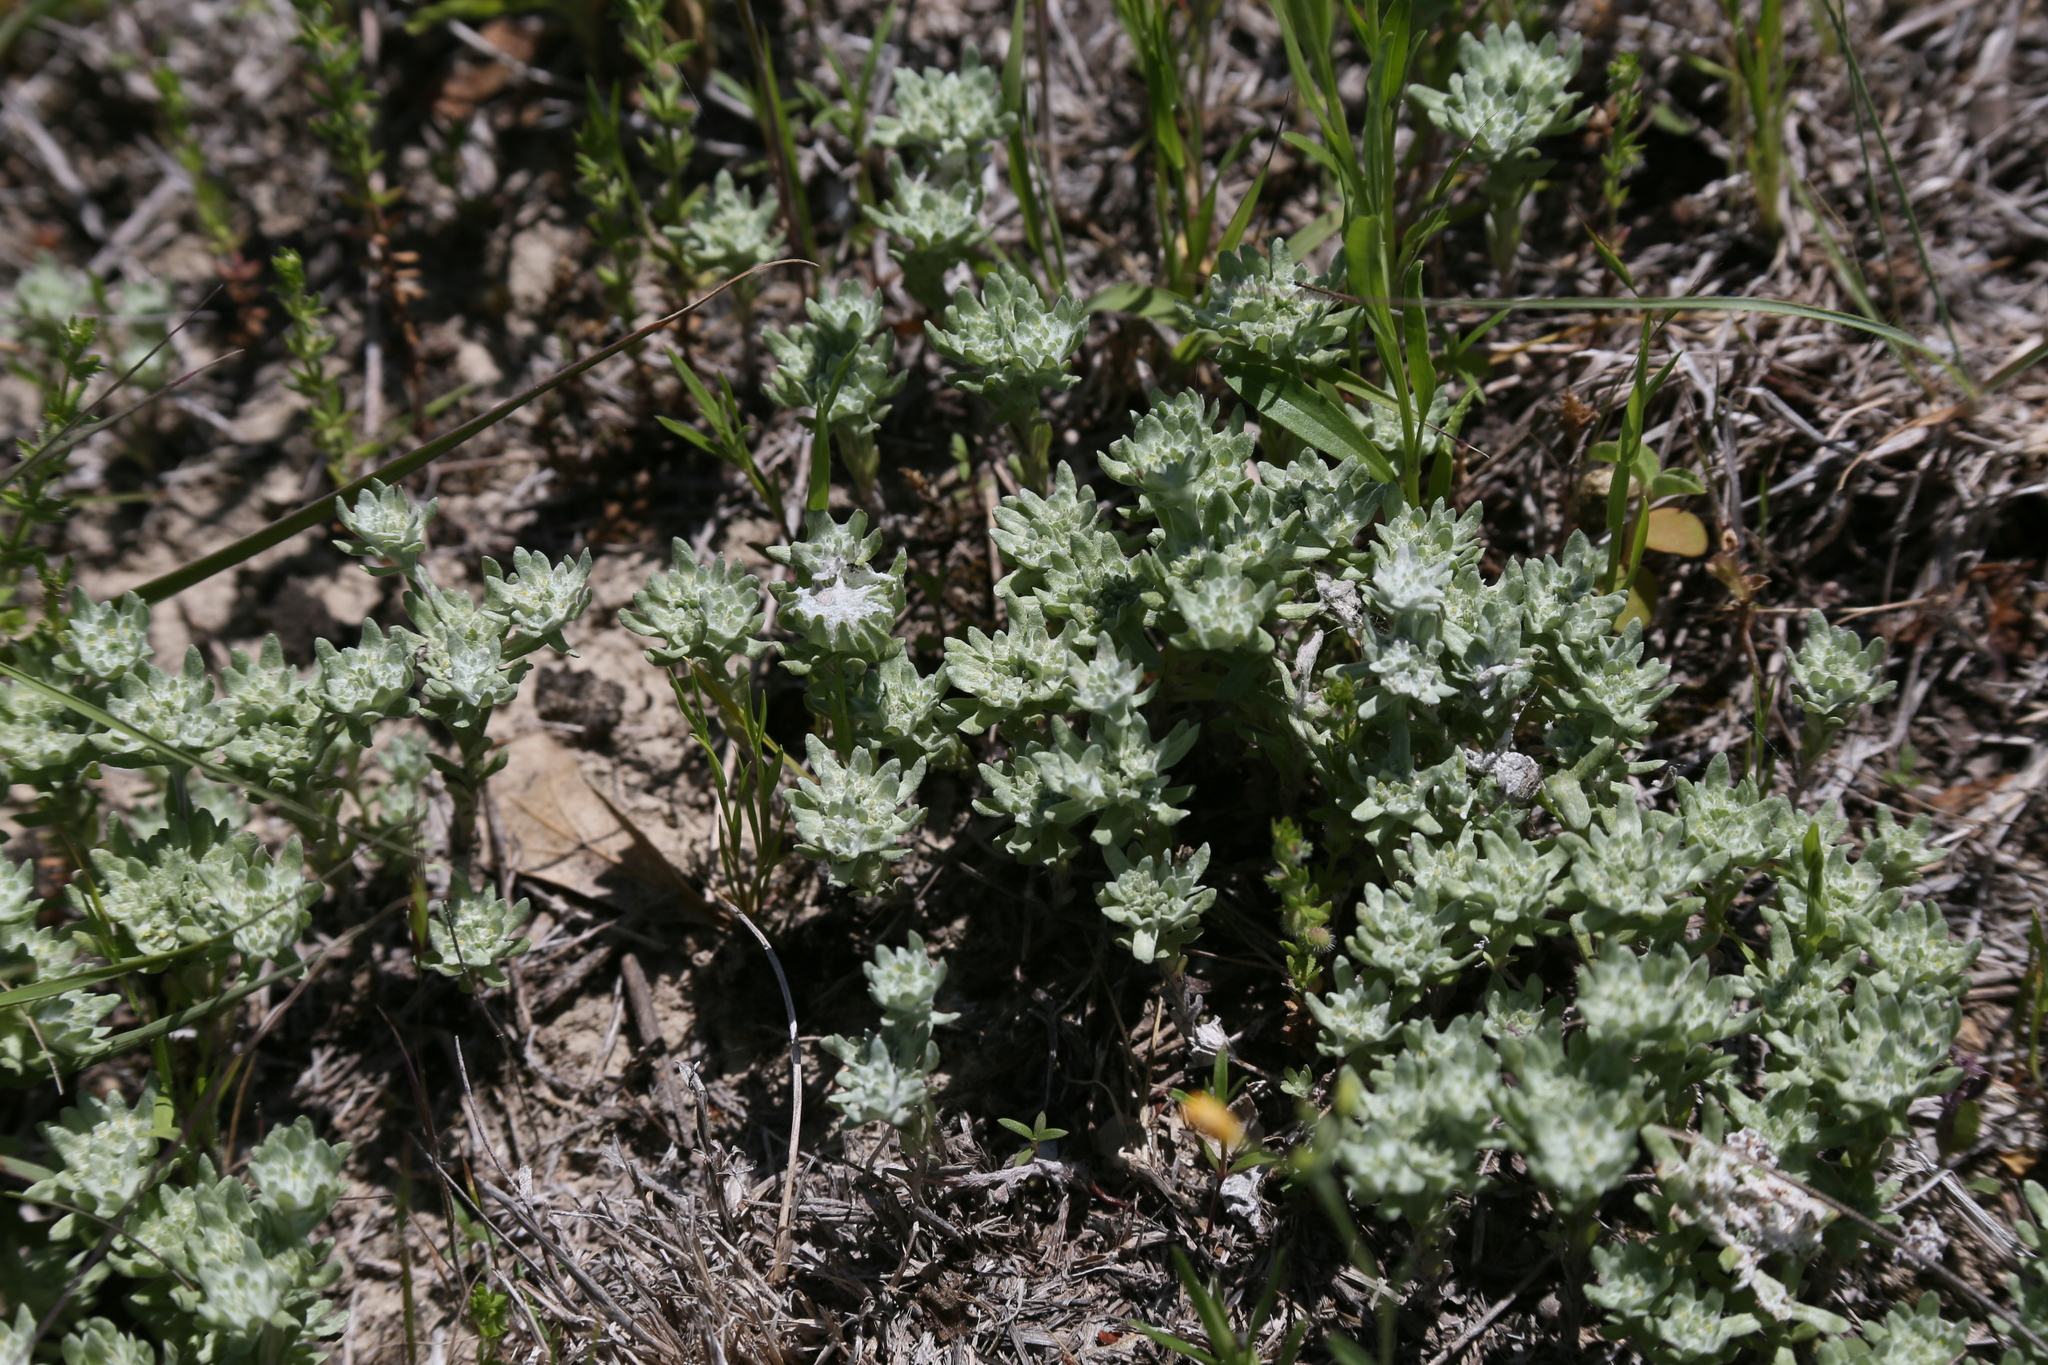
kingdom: Plantae
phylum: Tracheophyta
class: Magnoliopsida
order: Asterales
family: Asteraceae
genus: Diaperia
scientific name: Diaperia prolifera
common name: Big-head rabbit-tobacco
